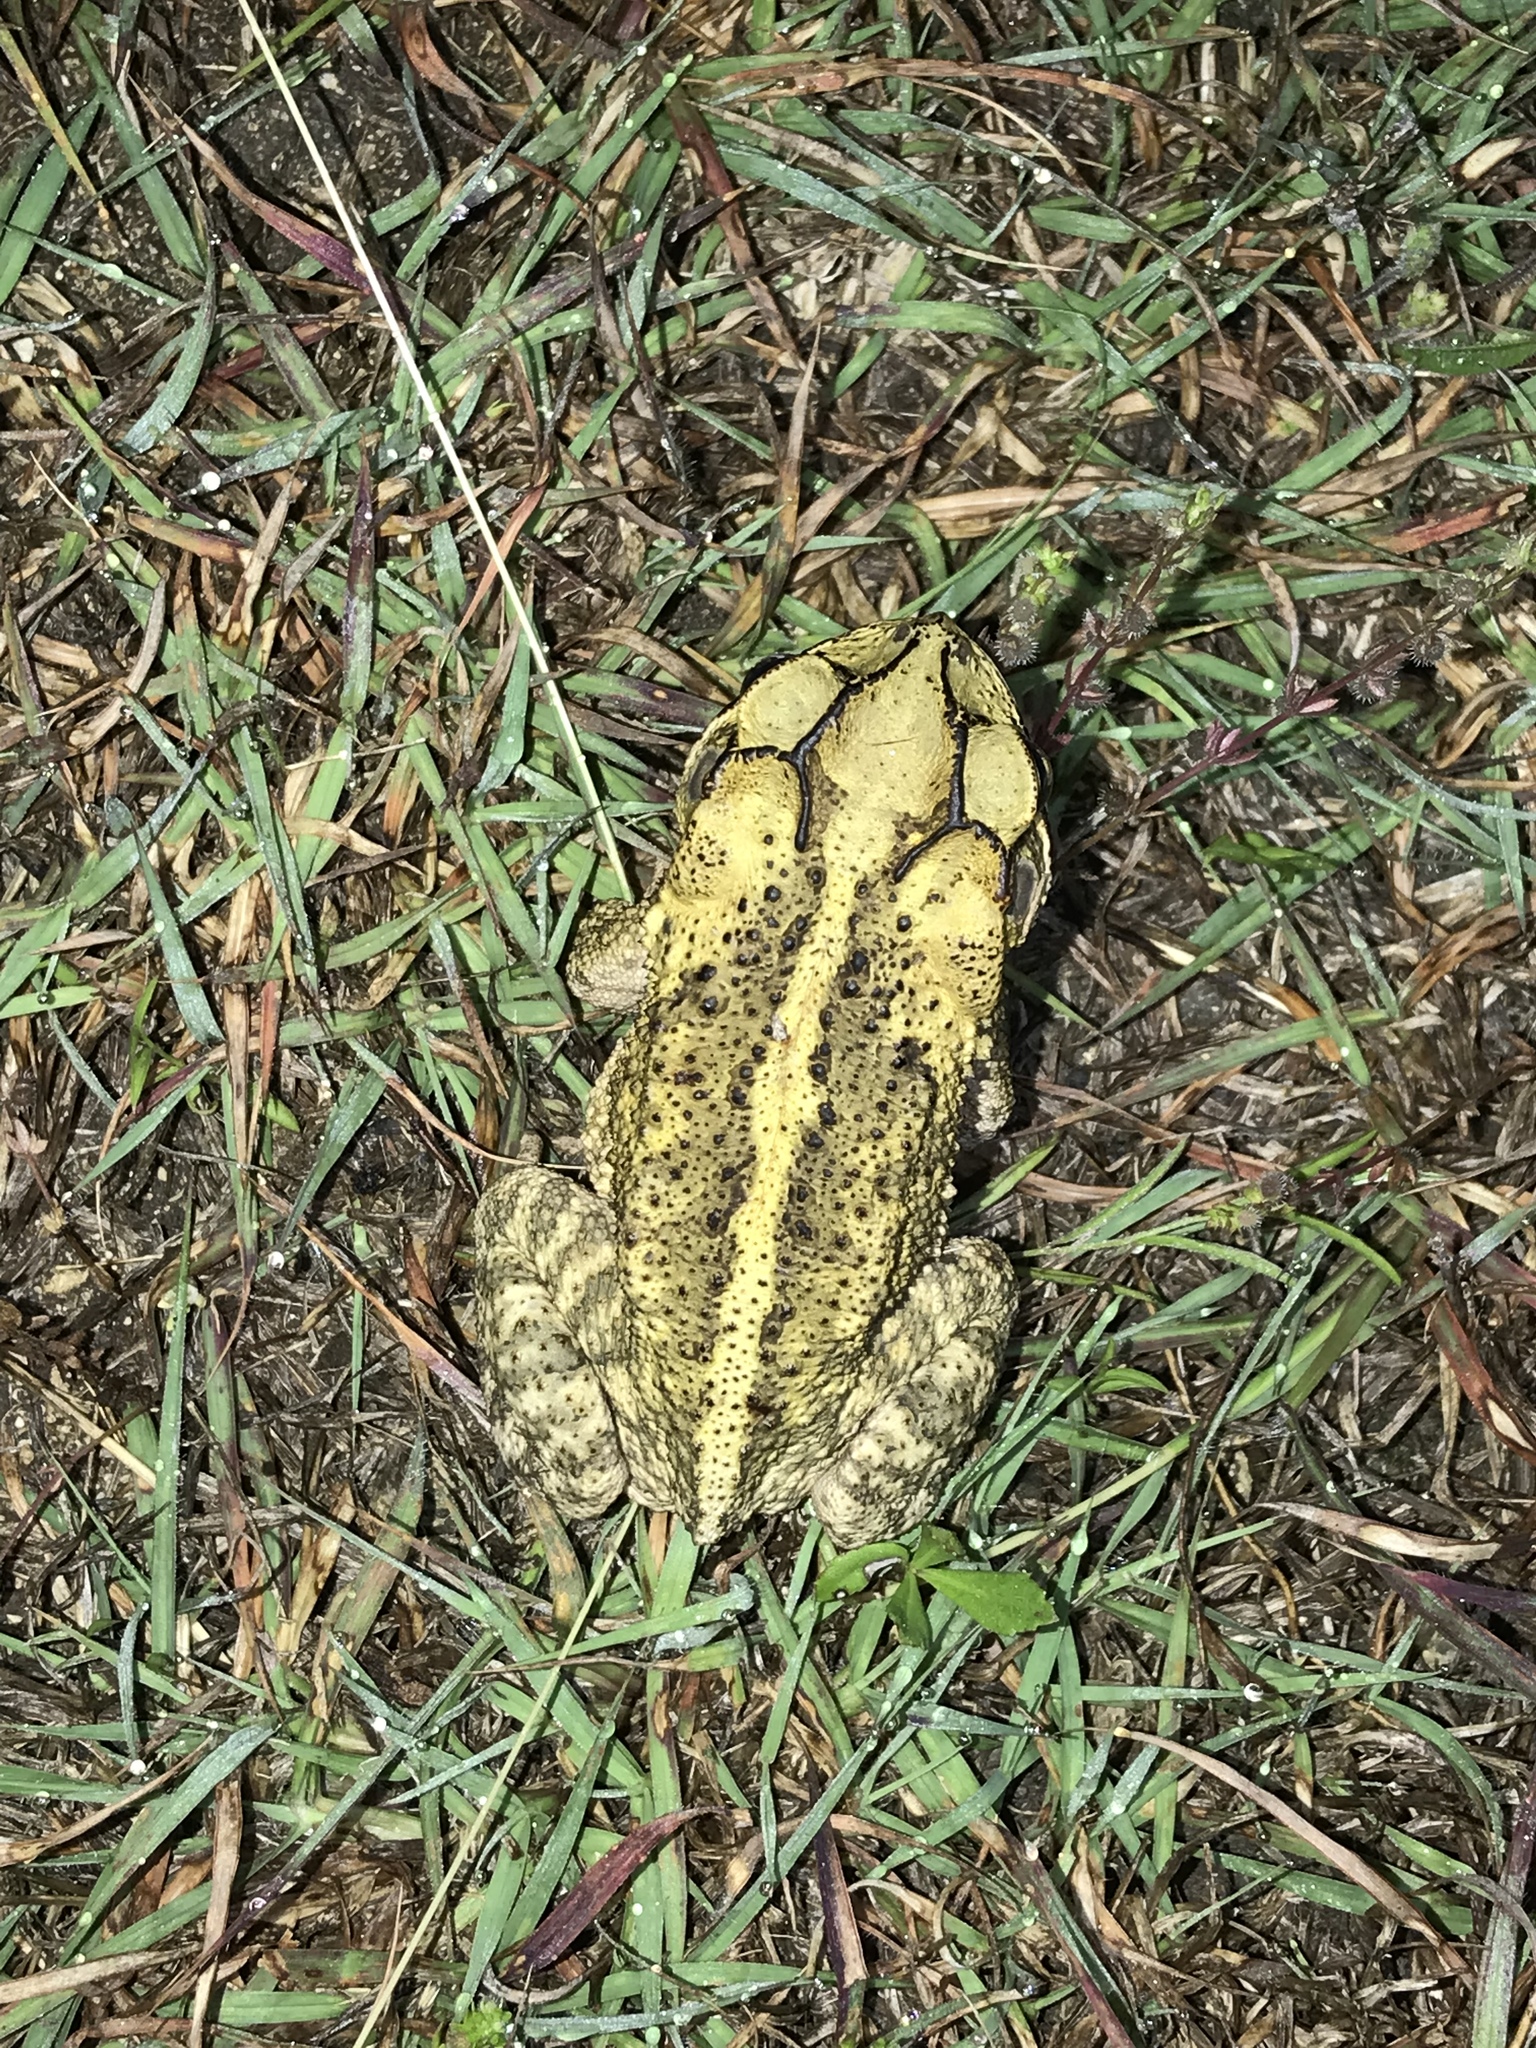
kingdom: Animalia
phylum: Chordata
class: Amphibia
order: Anura
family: Bufonidae
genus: Incilius
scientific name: Incilius nebulifer
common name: Gulf coast toad
